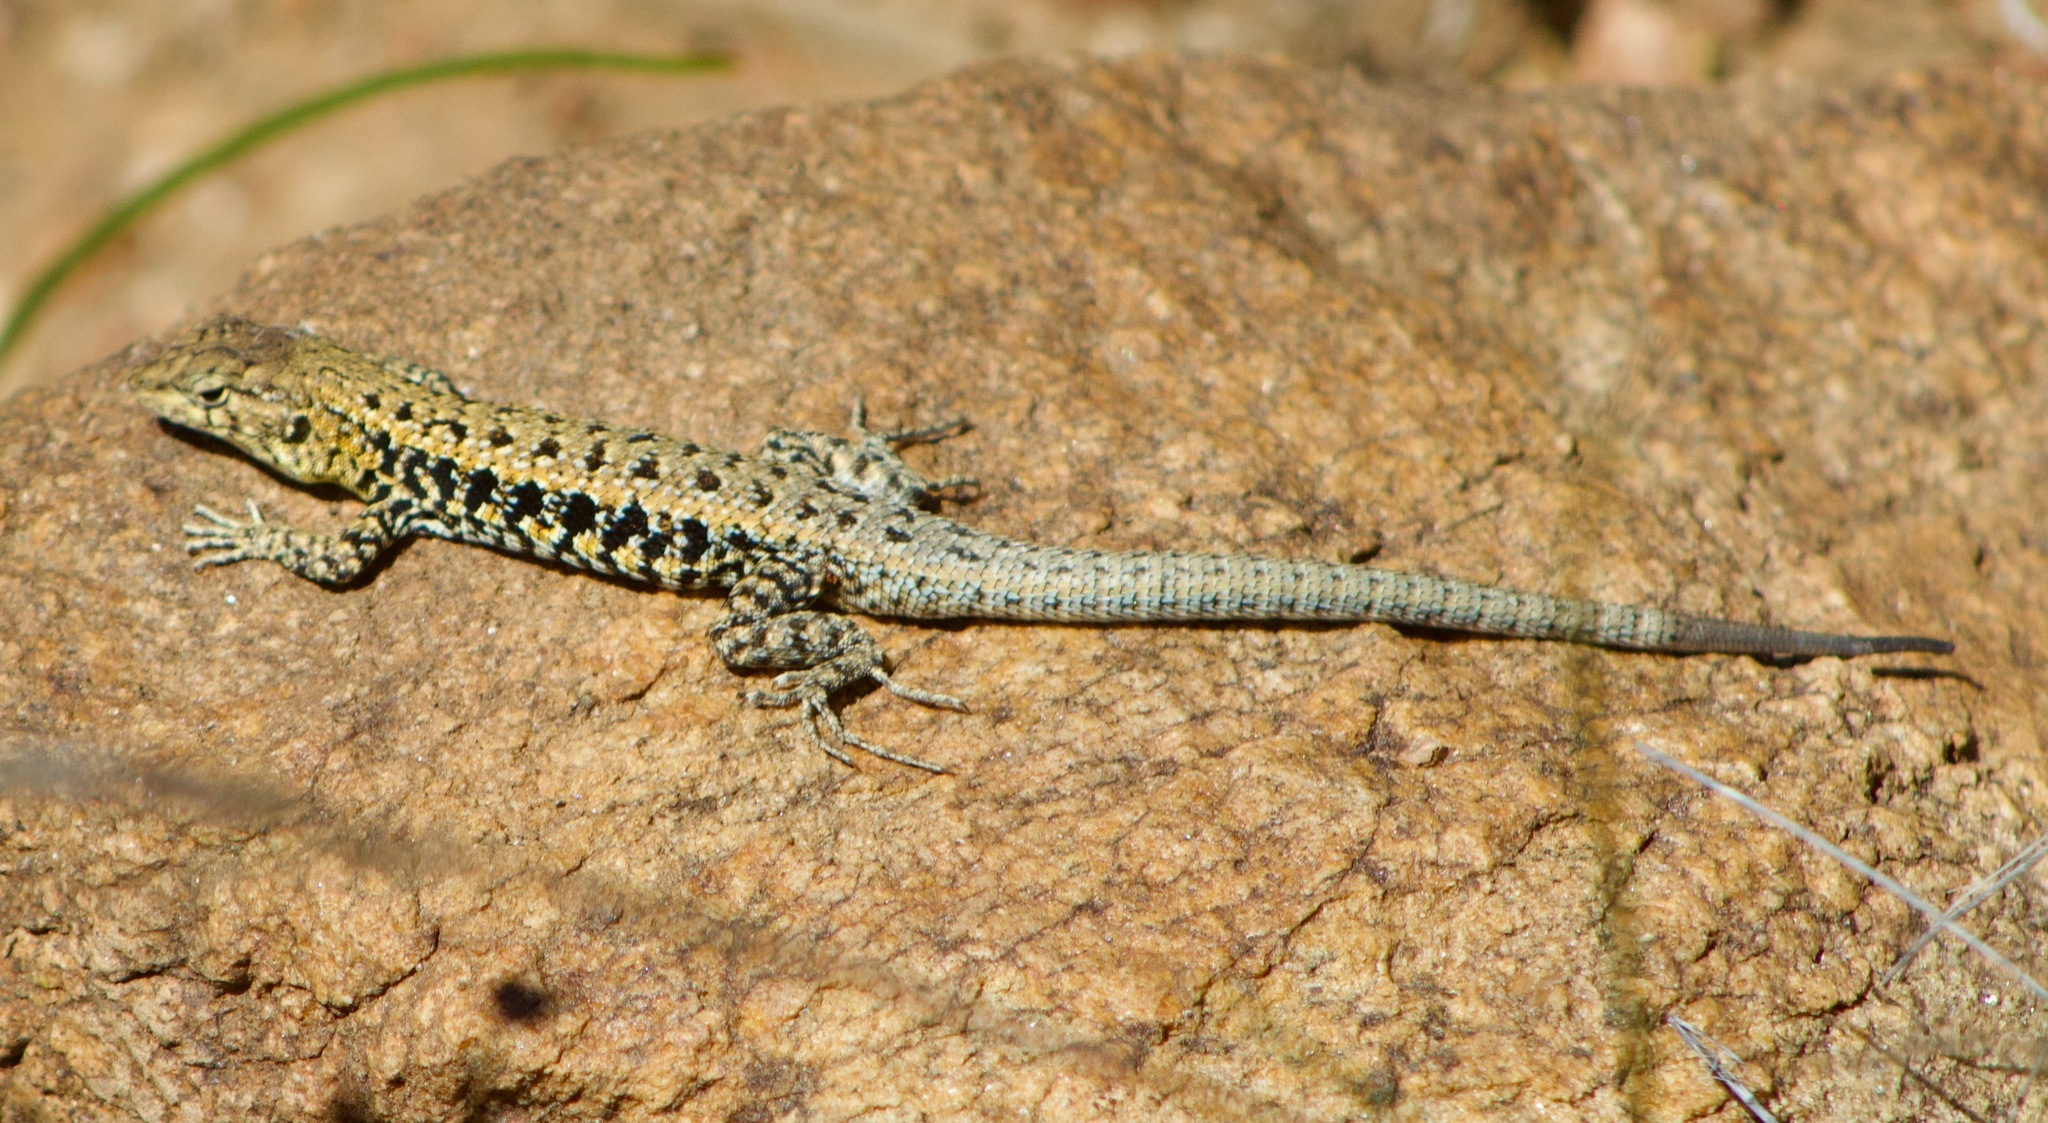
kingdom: Animalia
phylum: Chordata
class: Squamata
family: Liolaemidae
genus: Liolaemus
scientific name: Liolaemus platei
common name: Braided tree iguana
